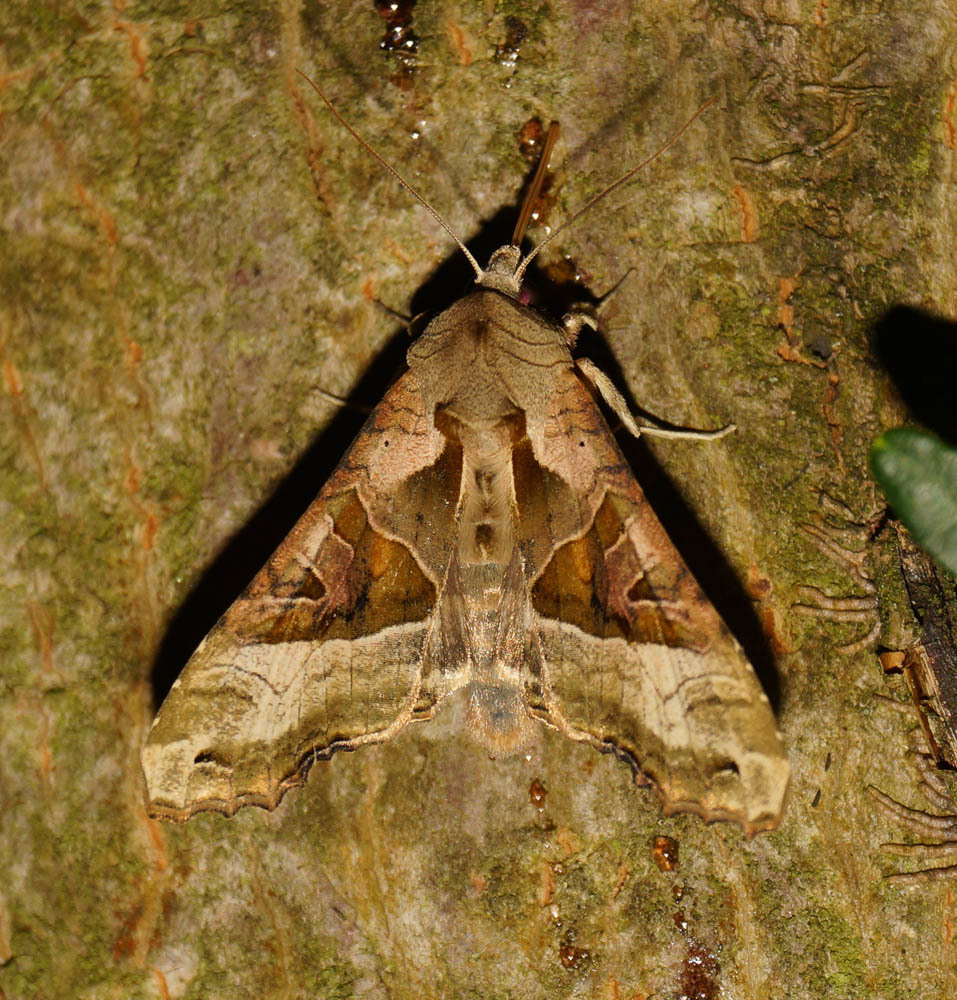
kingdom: Animalia
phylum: Arthropoda
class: Insecta
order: Lepidoptera
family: Noctuidae
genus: Phlogophora
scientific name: Phlogophora meticulosa
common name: Angle shades
